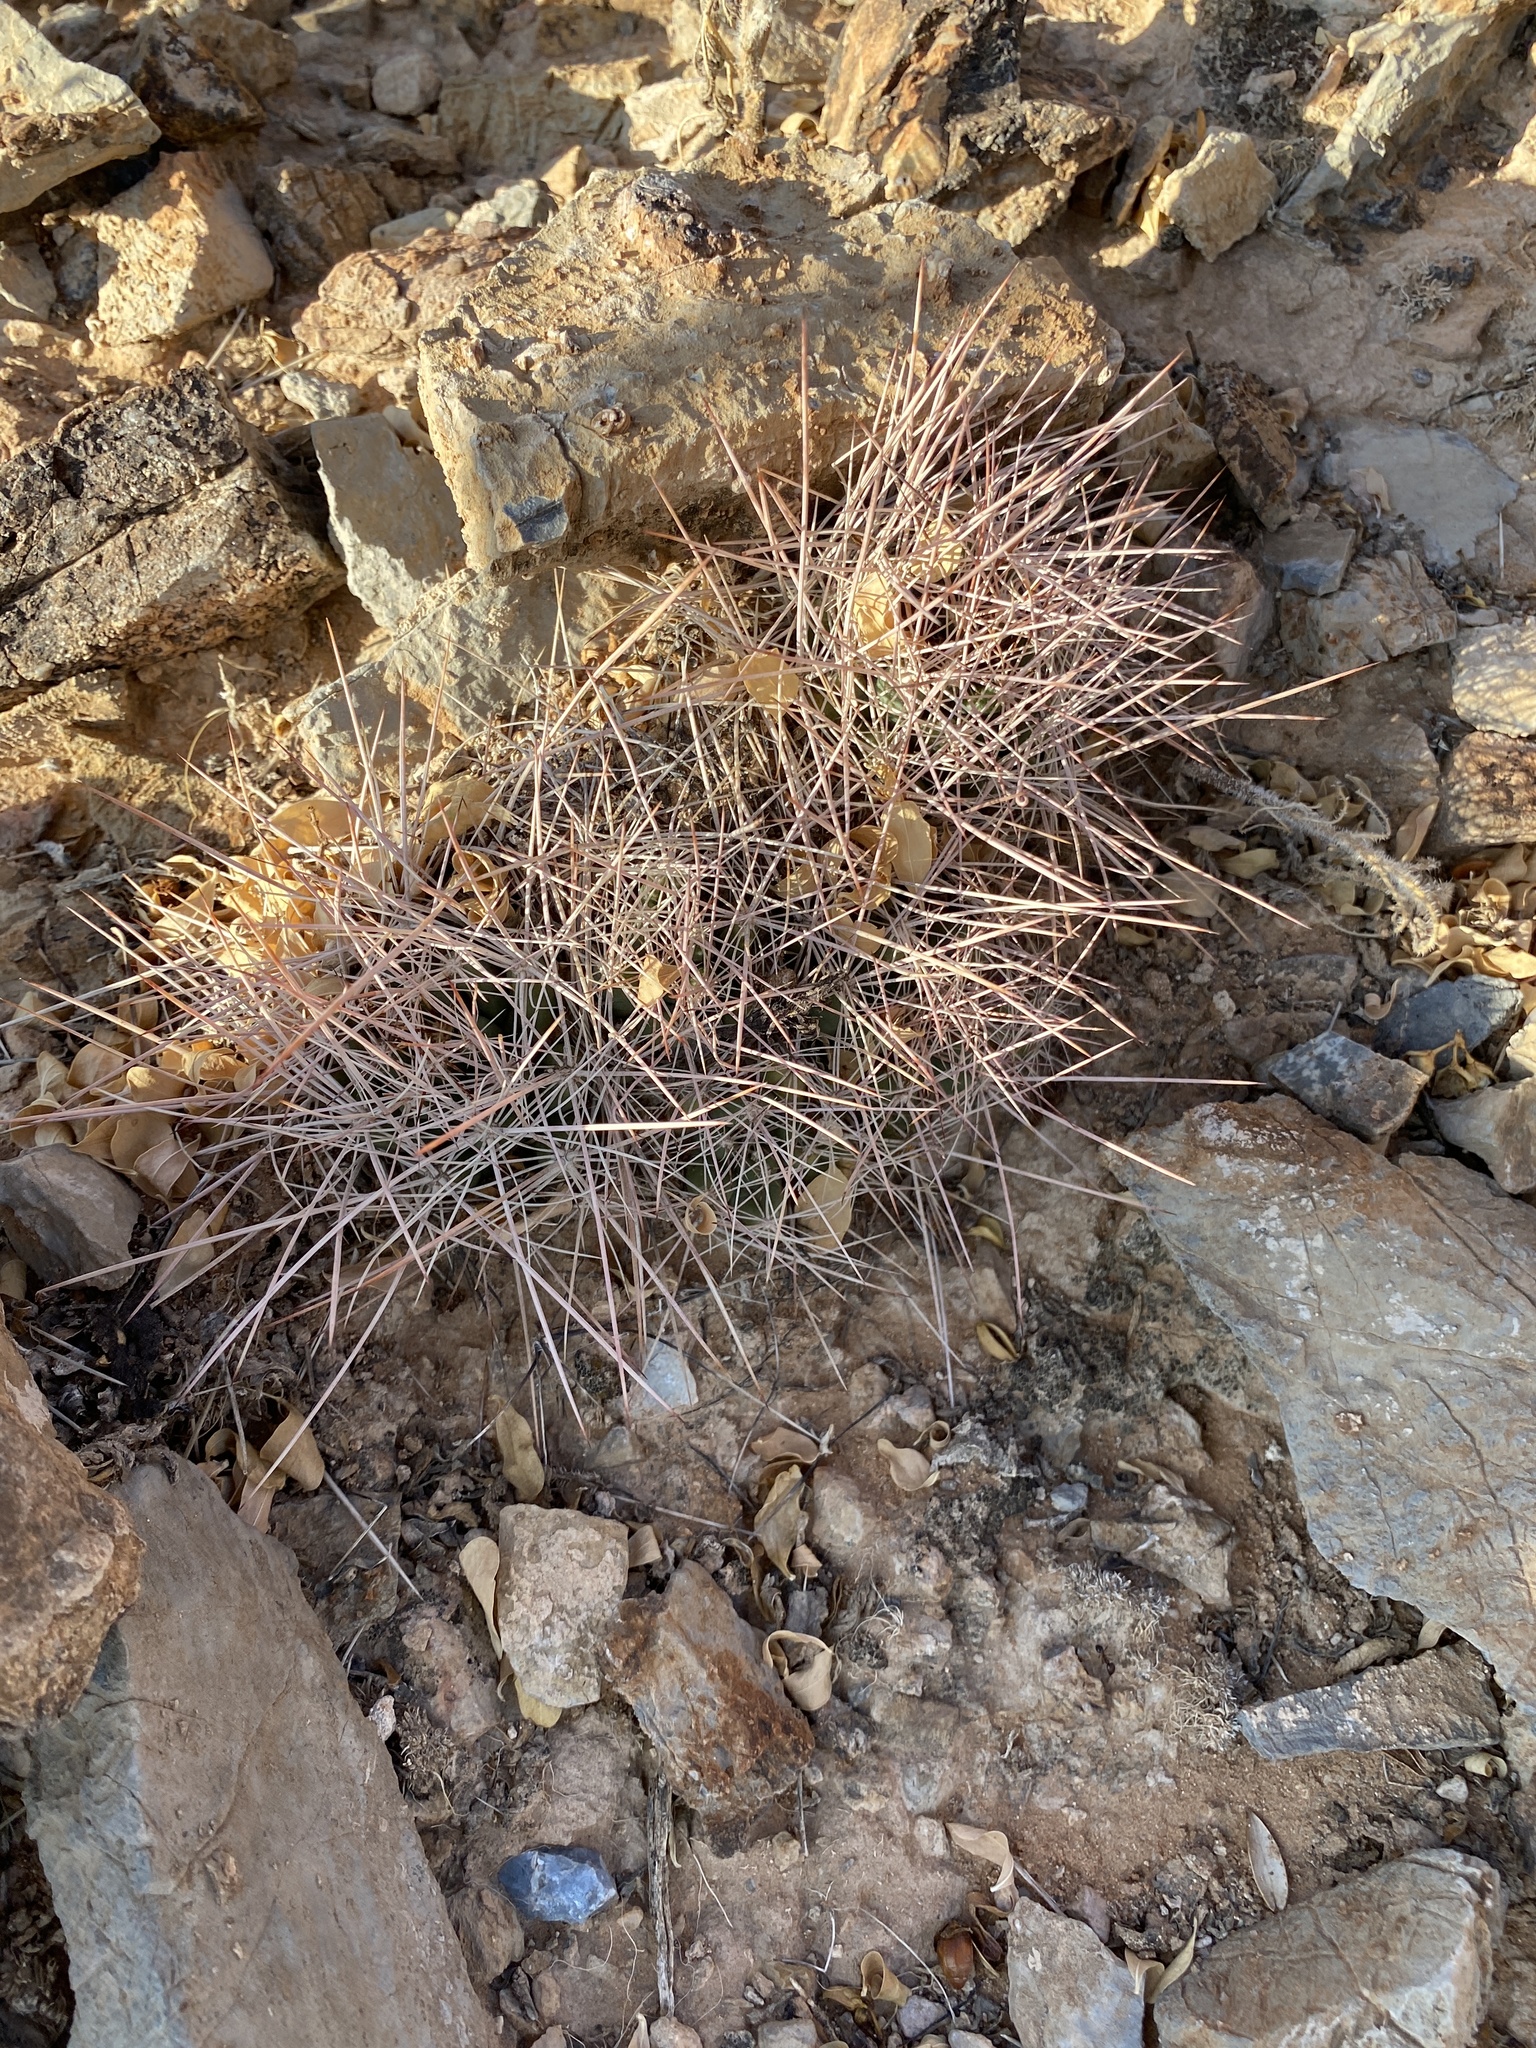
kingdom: Plantae
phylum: Tracheophyta
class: Magnoliopsida
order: Caryophyllales
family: Cactaceae
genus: Coryphantha
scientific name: Coryphantha macromeris
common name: Nipple beehive cactus
